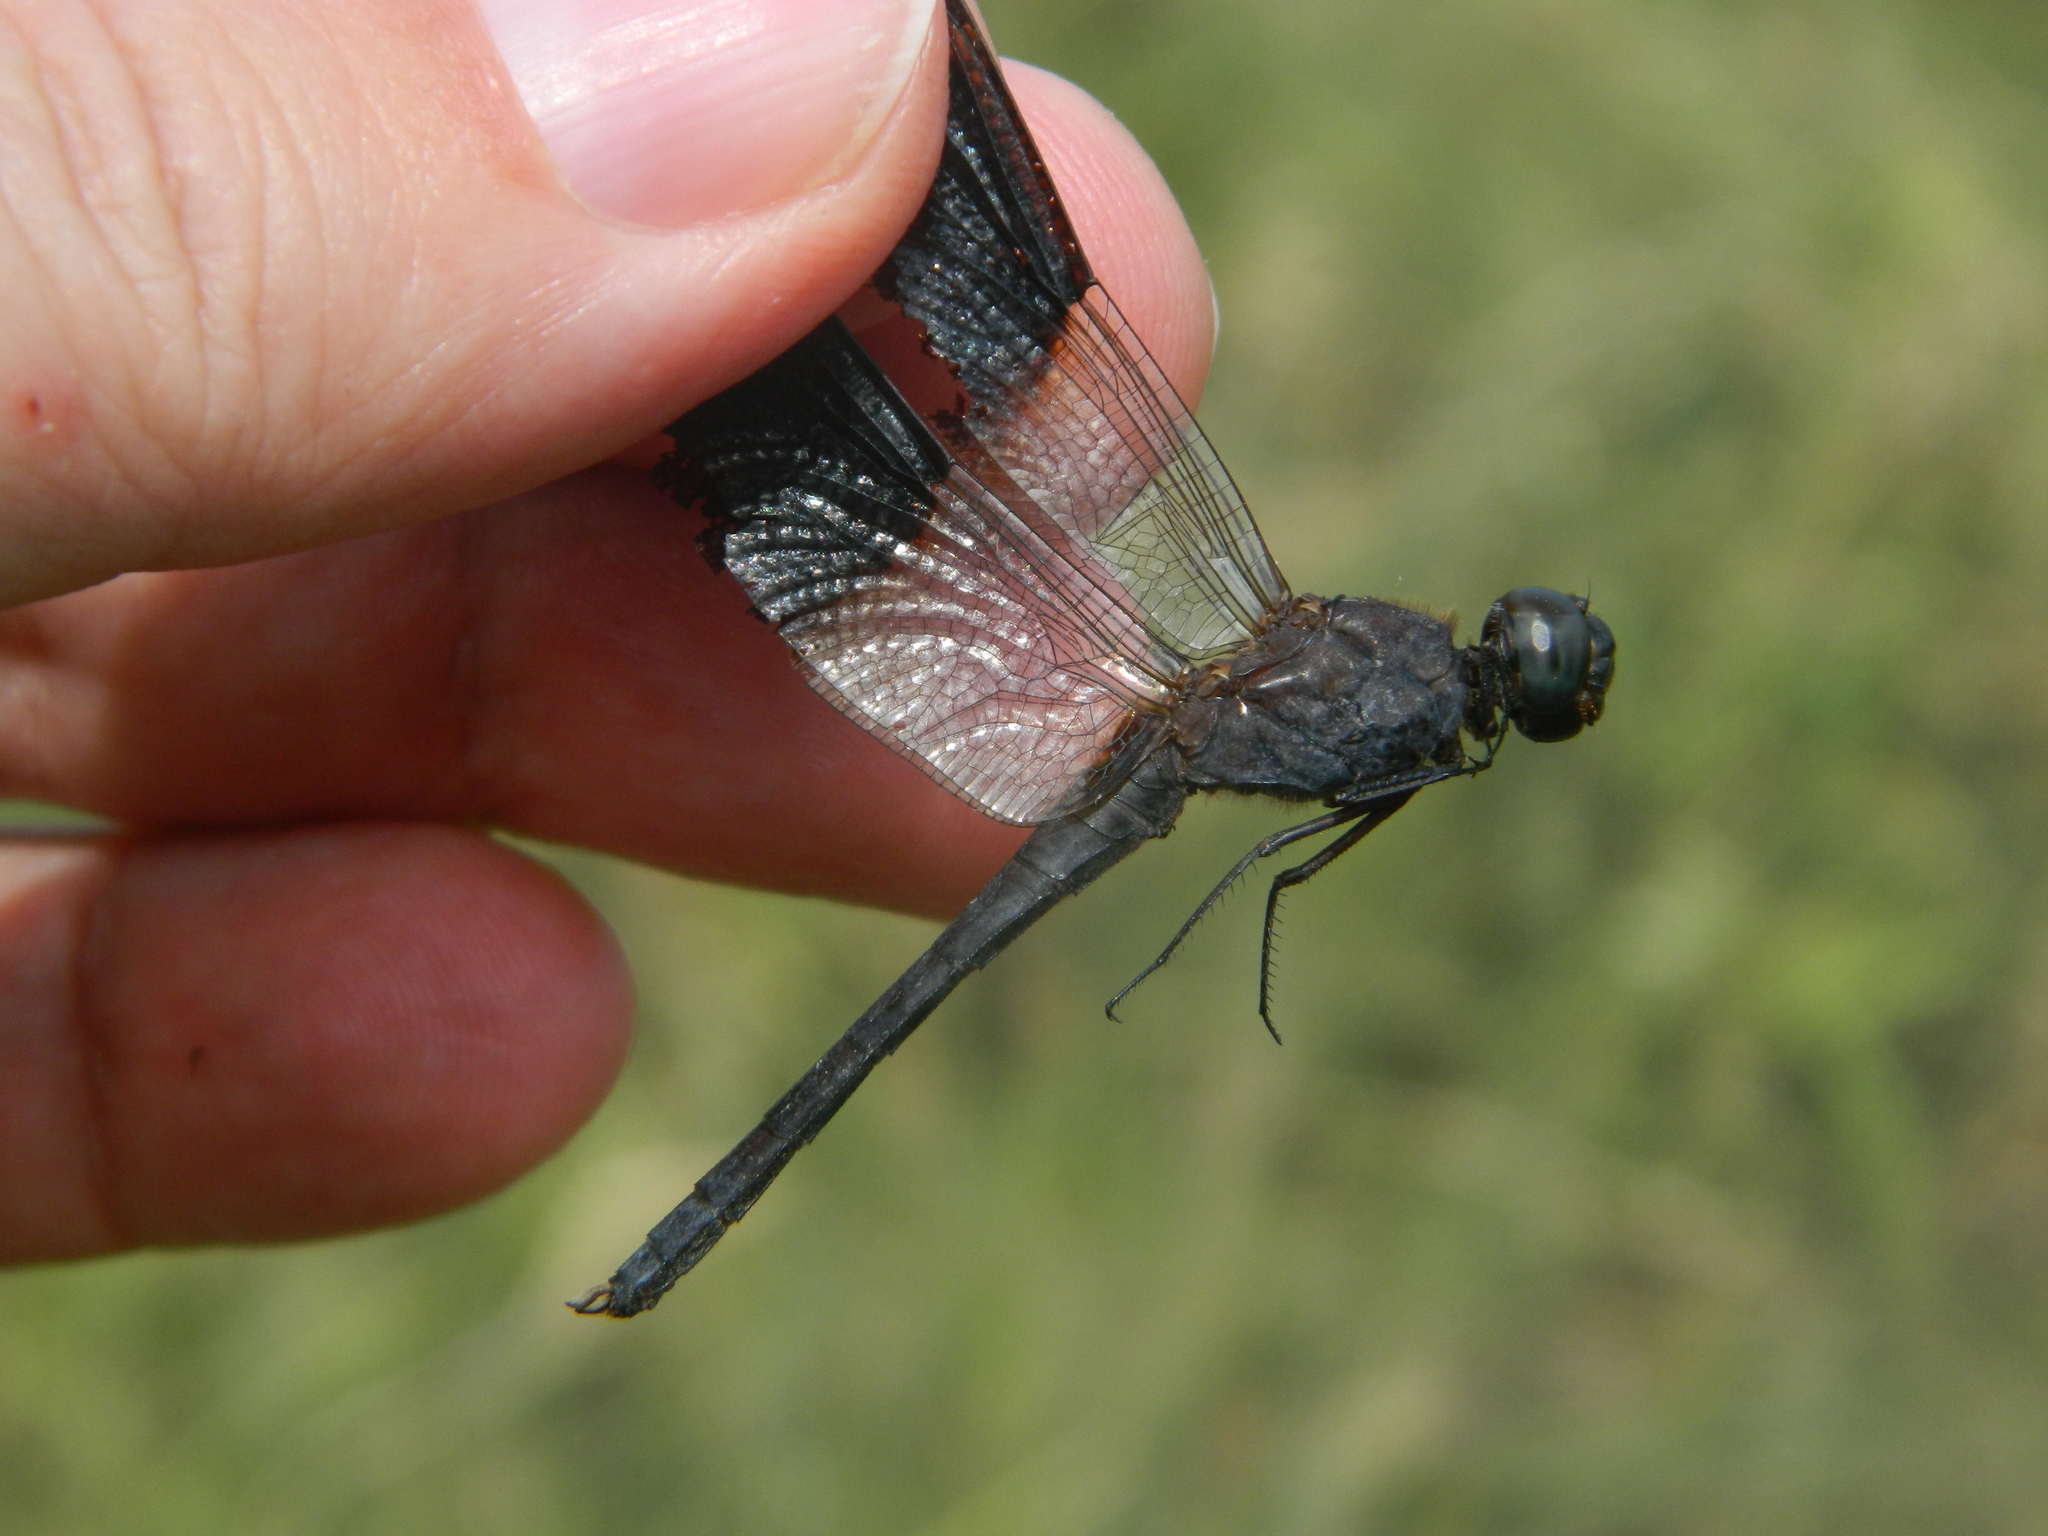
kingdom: Animalia
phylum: Arthropoda
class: Insecta
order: Odonata
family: Libellulidae
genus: Erythrodiplax
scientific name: Erythrodiplax umbrata
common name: Band-winged dragonlet
